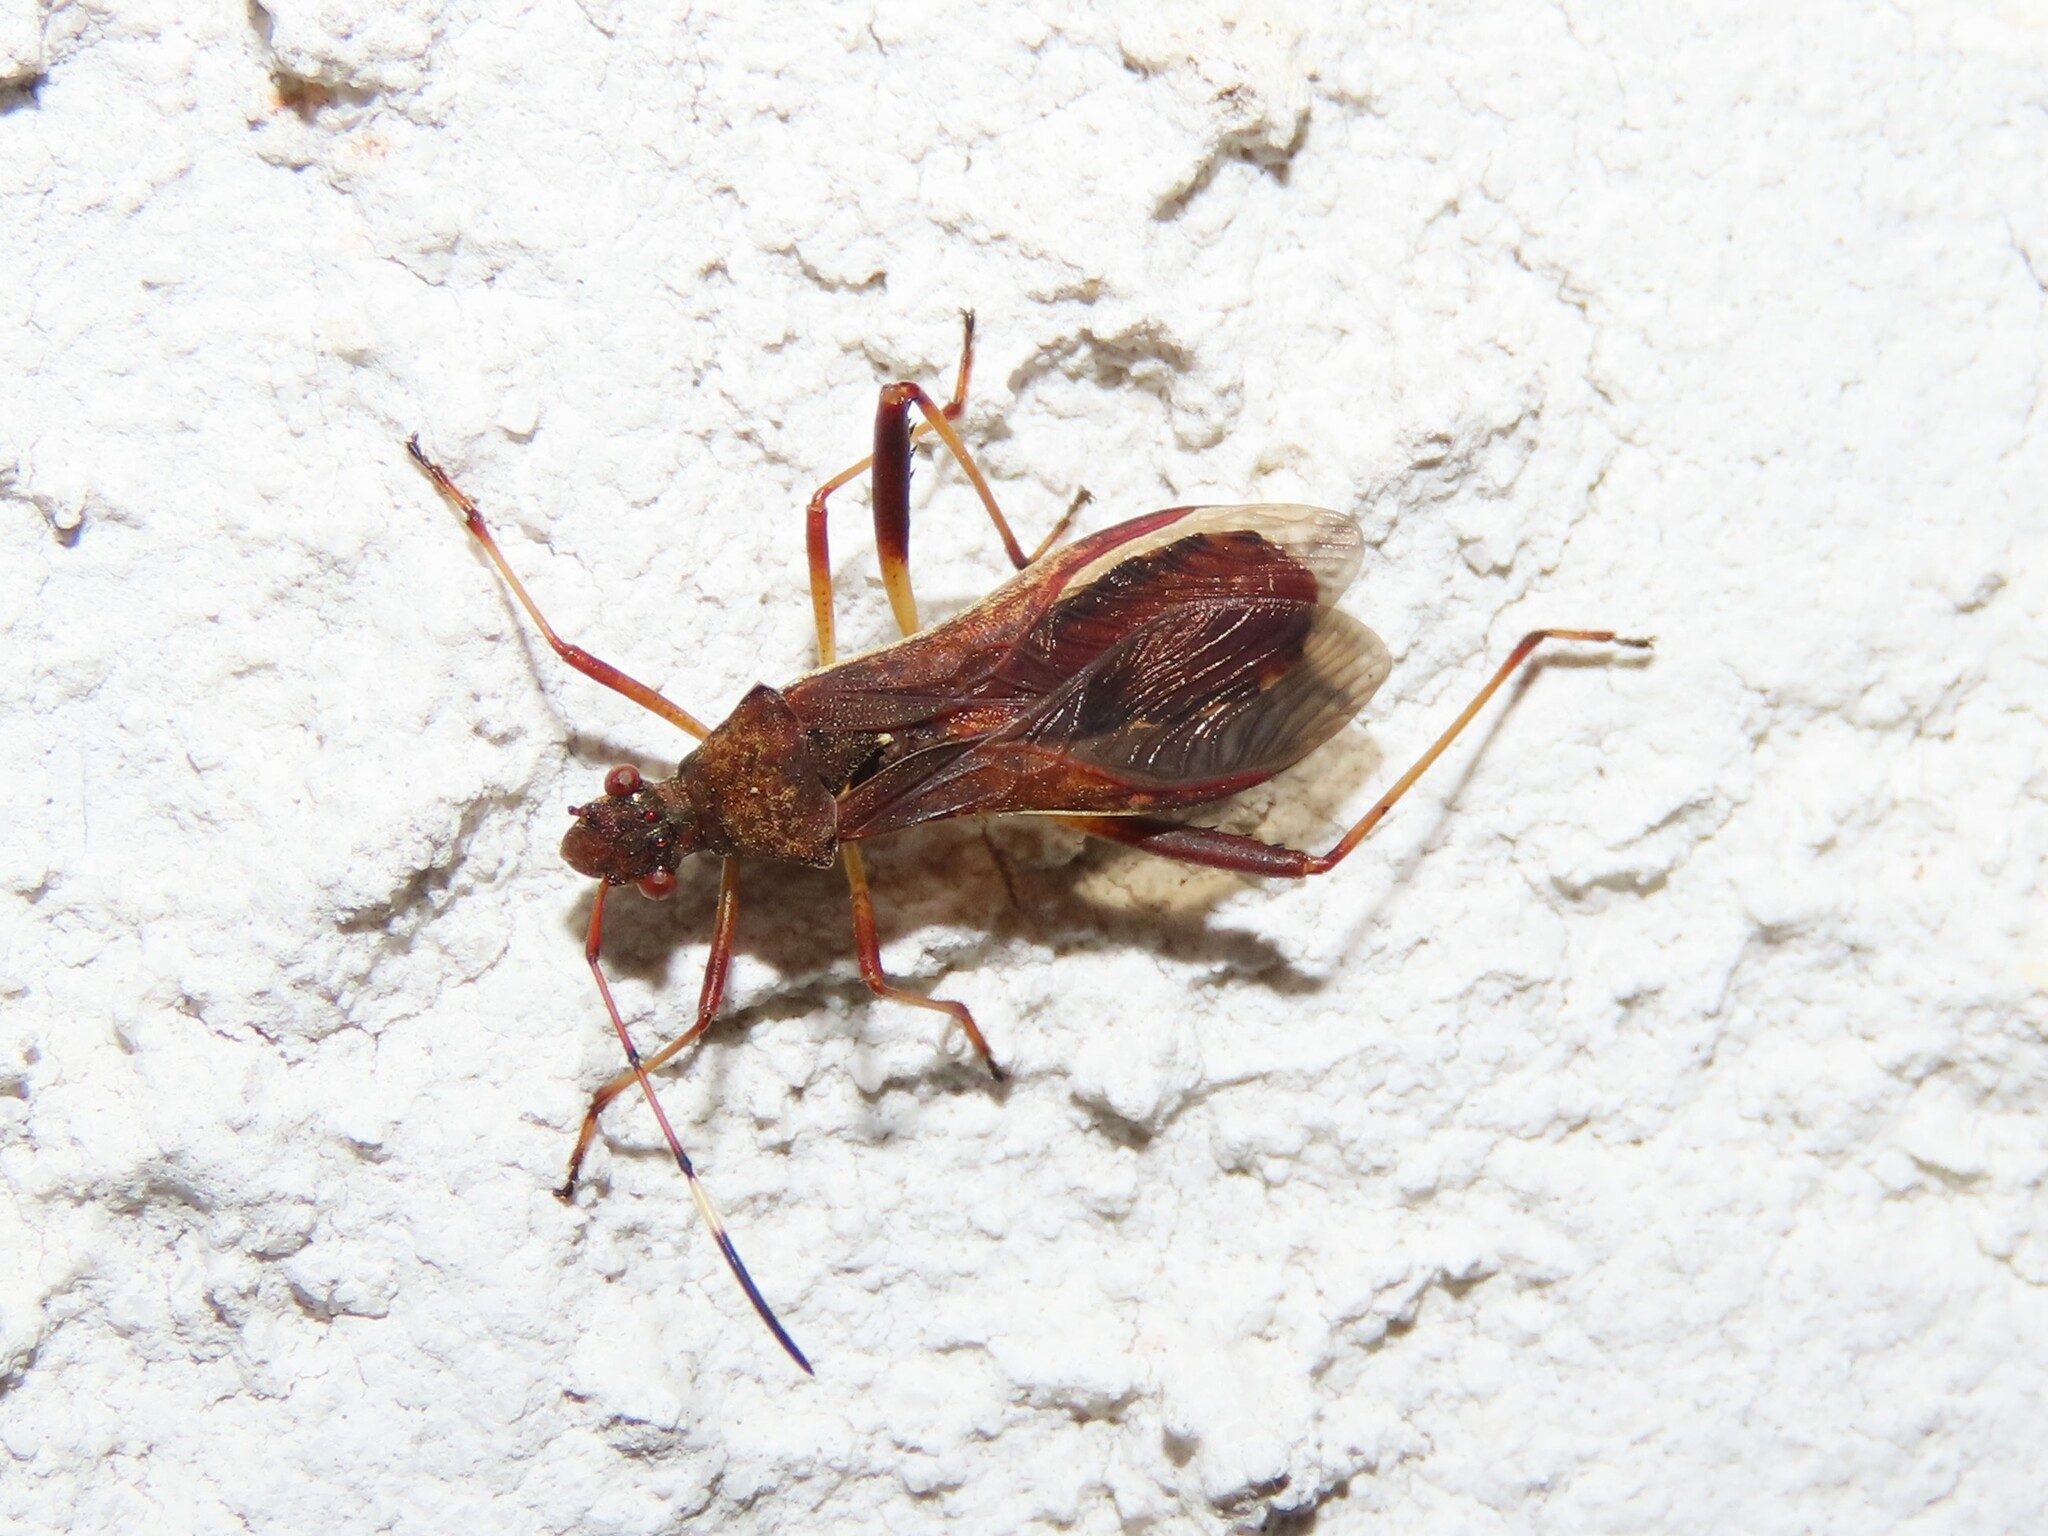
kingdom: Animalia
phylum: Arthropoda
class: Insecta
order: Hemiptera
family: Alydidae
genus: Megalotomus
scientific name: Megalotomus quinquespinosus
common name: Lupine bug
